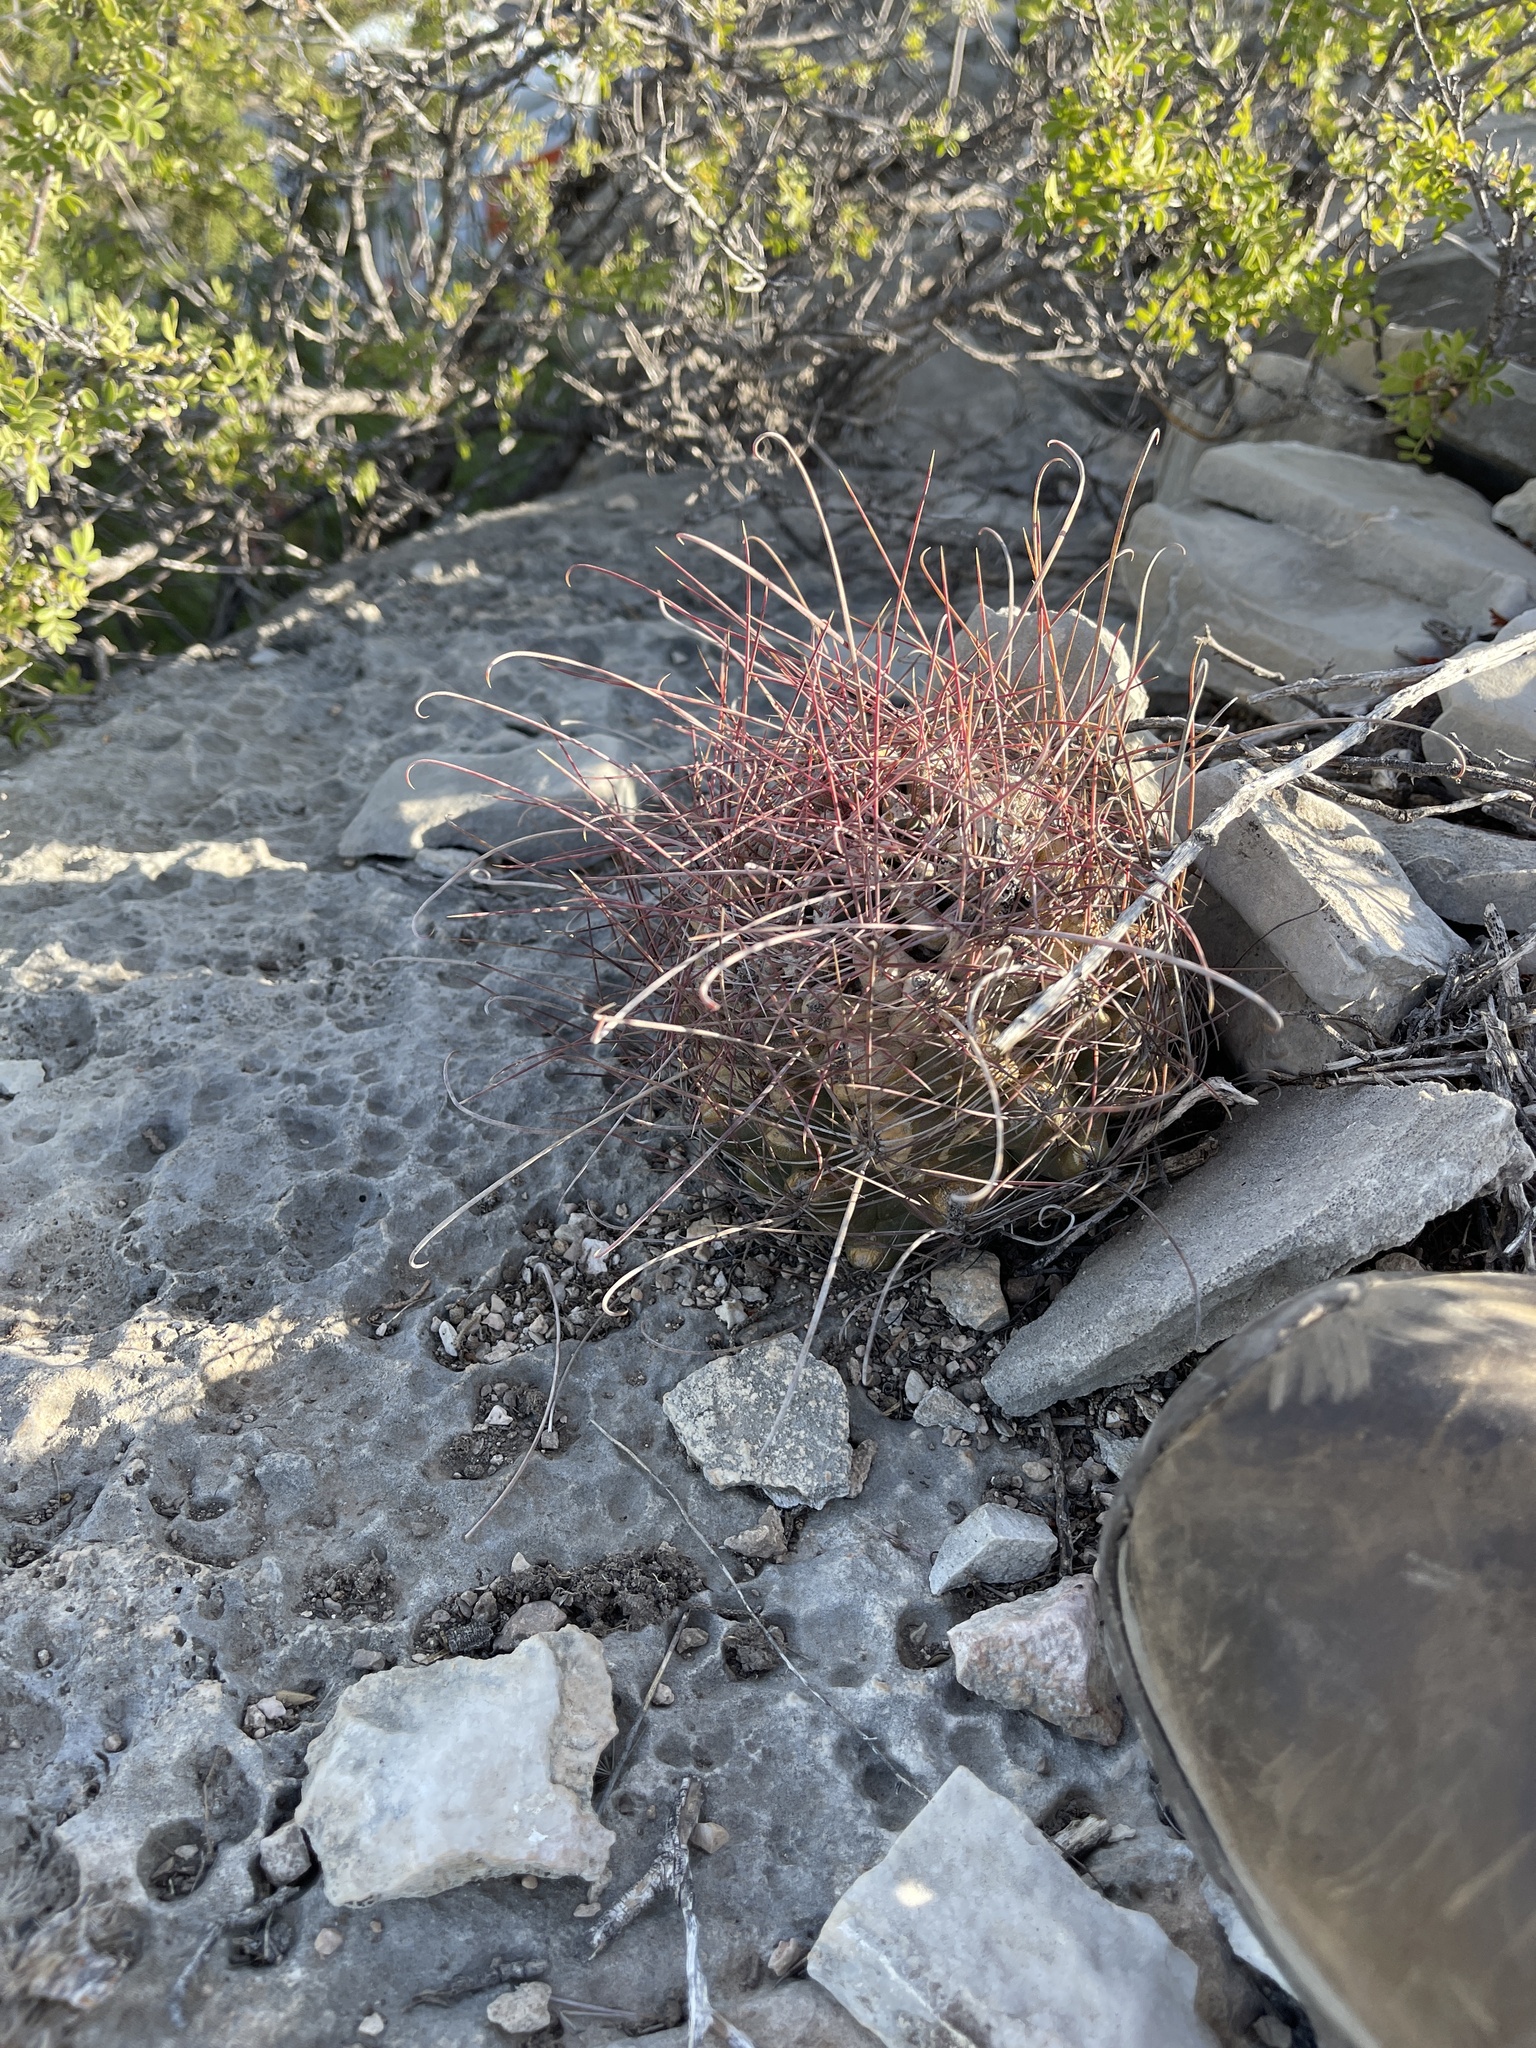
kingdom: Plantae
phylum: Tracheophyta
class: Magnoliopsida
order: Caryophyllales
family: Cactaceae
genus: Bisnaga
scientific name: Bisnaga hamatacantha
